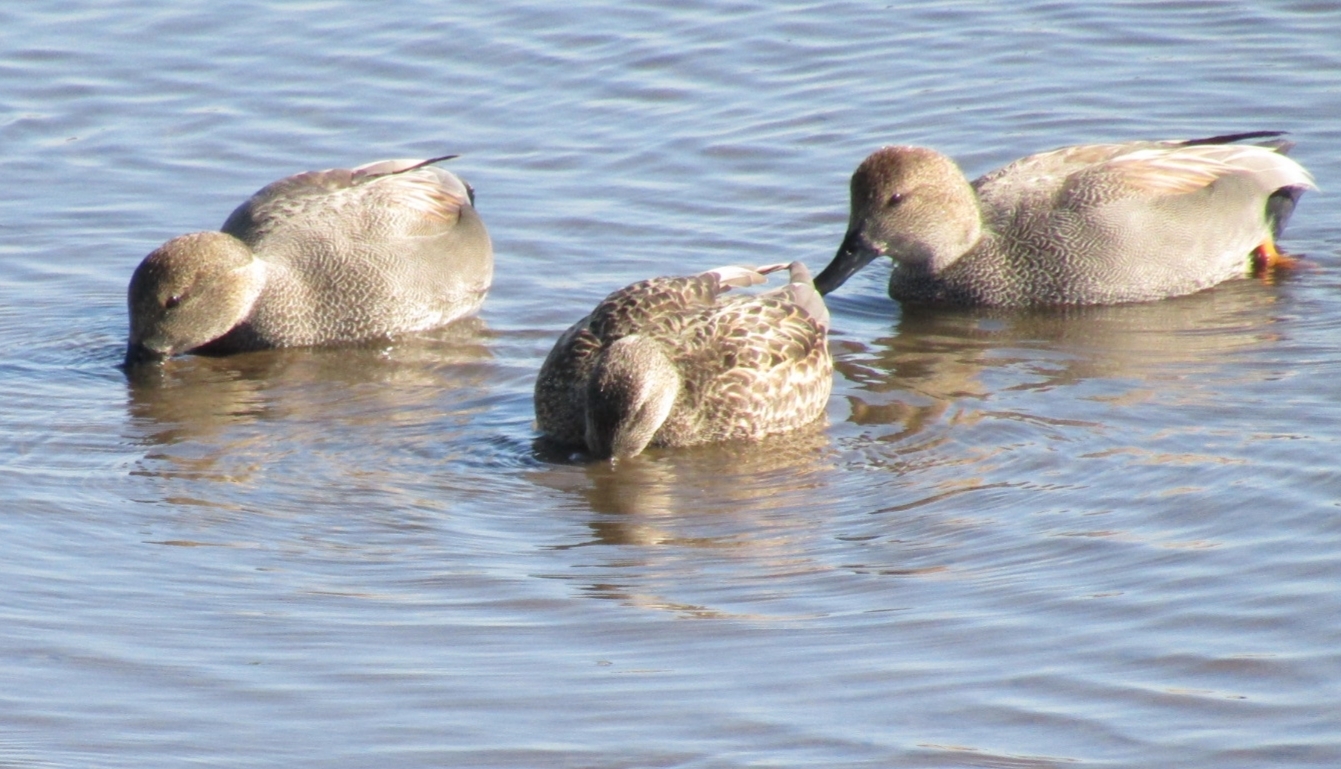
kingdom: Animalia
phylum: Chordata
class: Aves
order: Anseriformes
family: Anatidae
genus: Mareca
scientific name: Mareca strepera
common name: Gadwall
